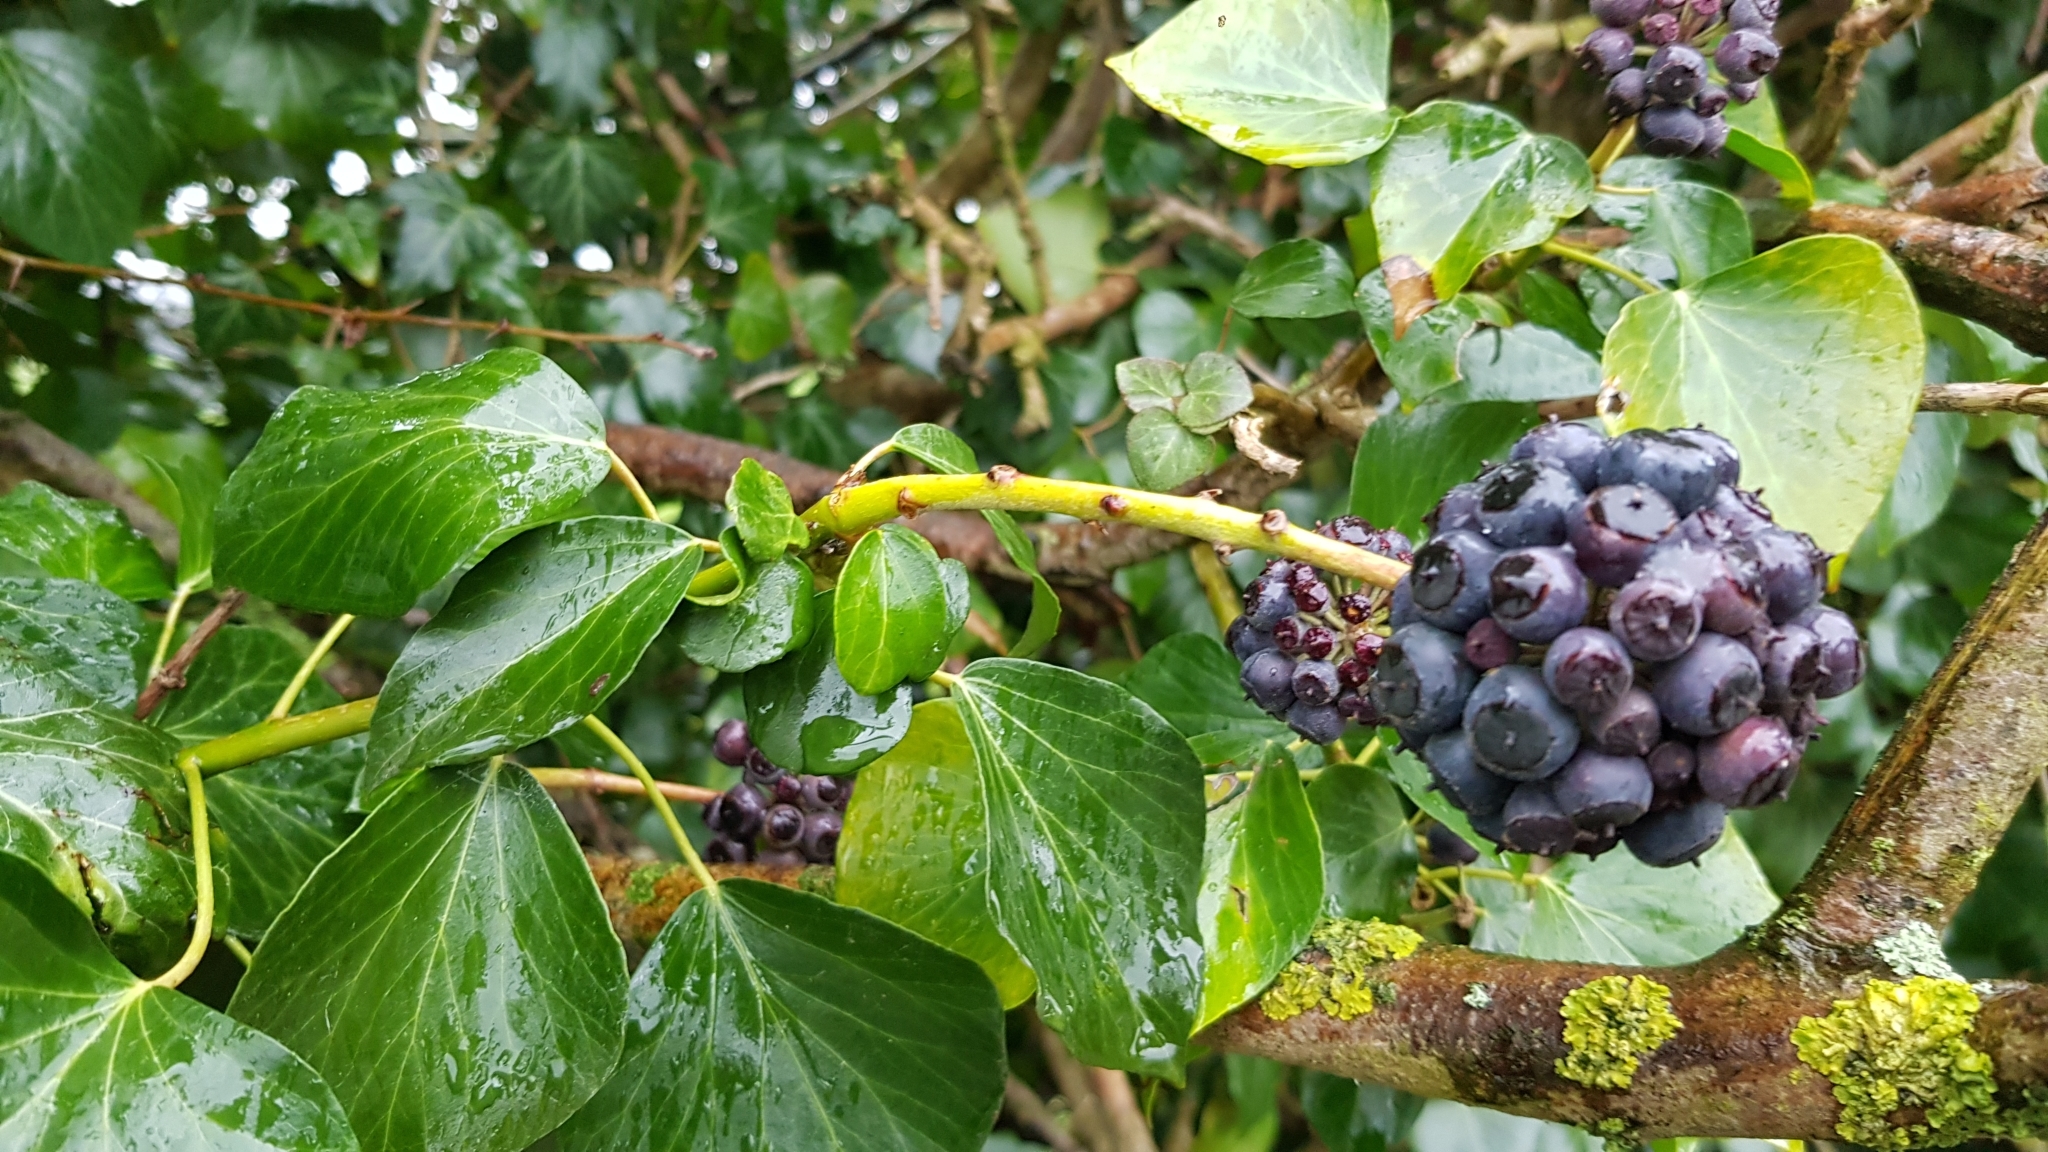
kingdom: Plantae
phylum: Tracheophyta
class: Magnoliopsida
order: Apiales
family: Araliaceae
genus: Hedera
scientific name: Hedera helix
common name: Ivy
